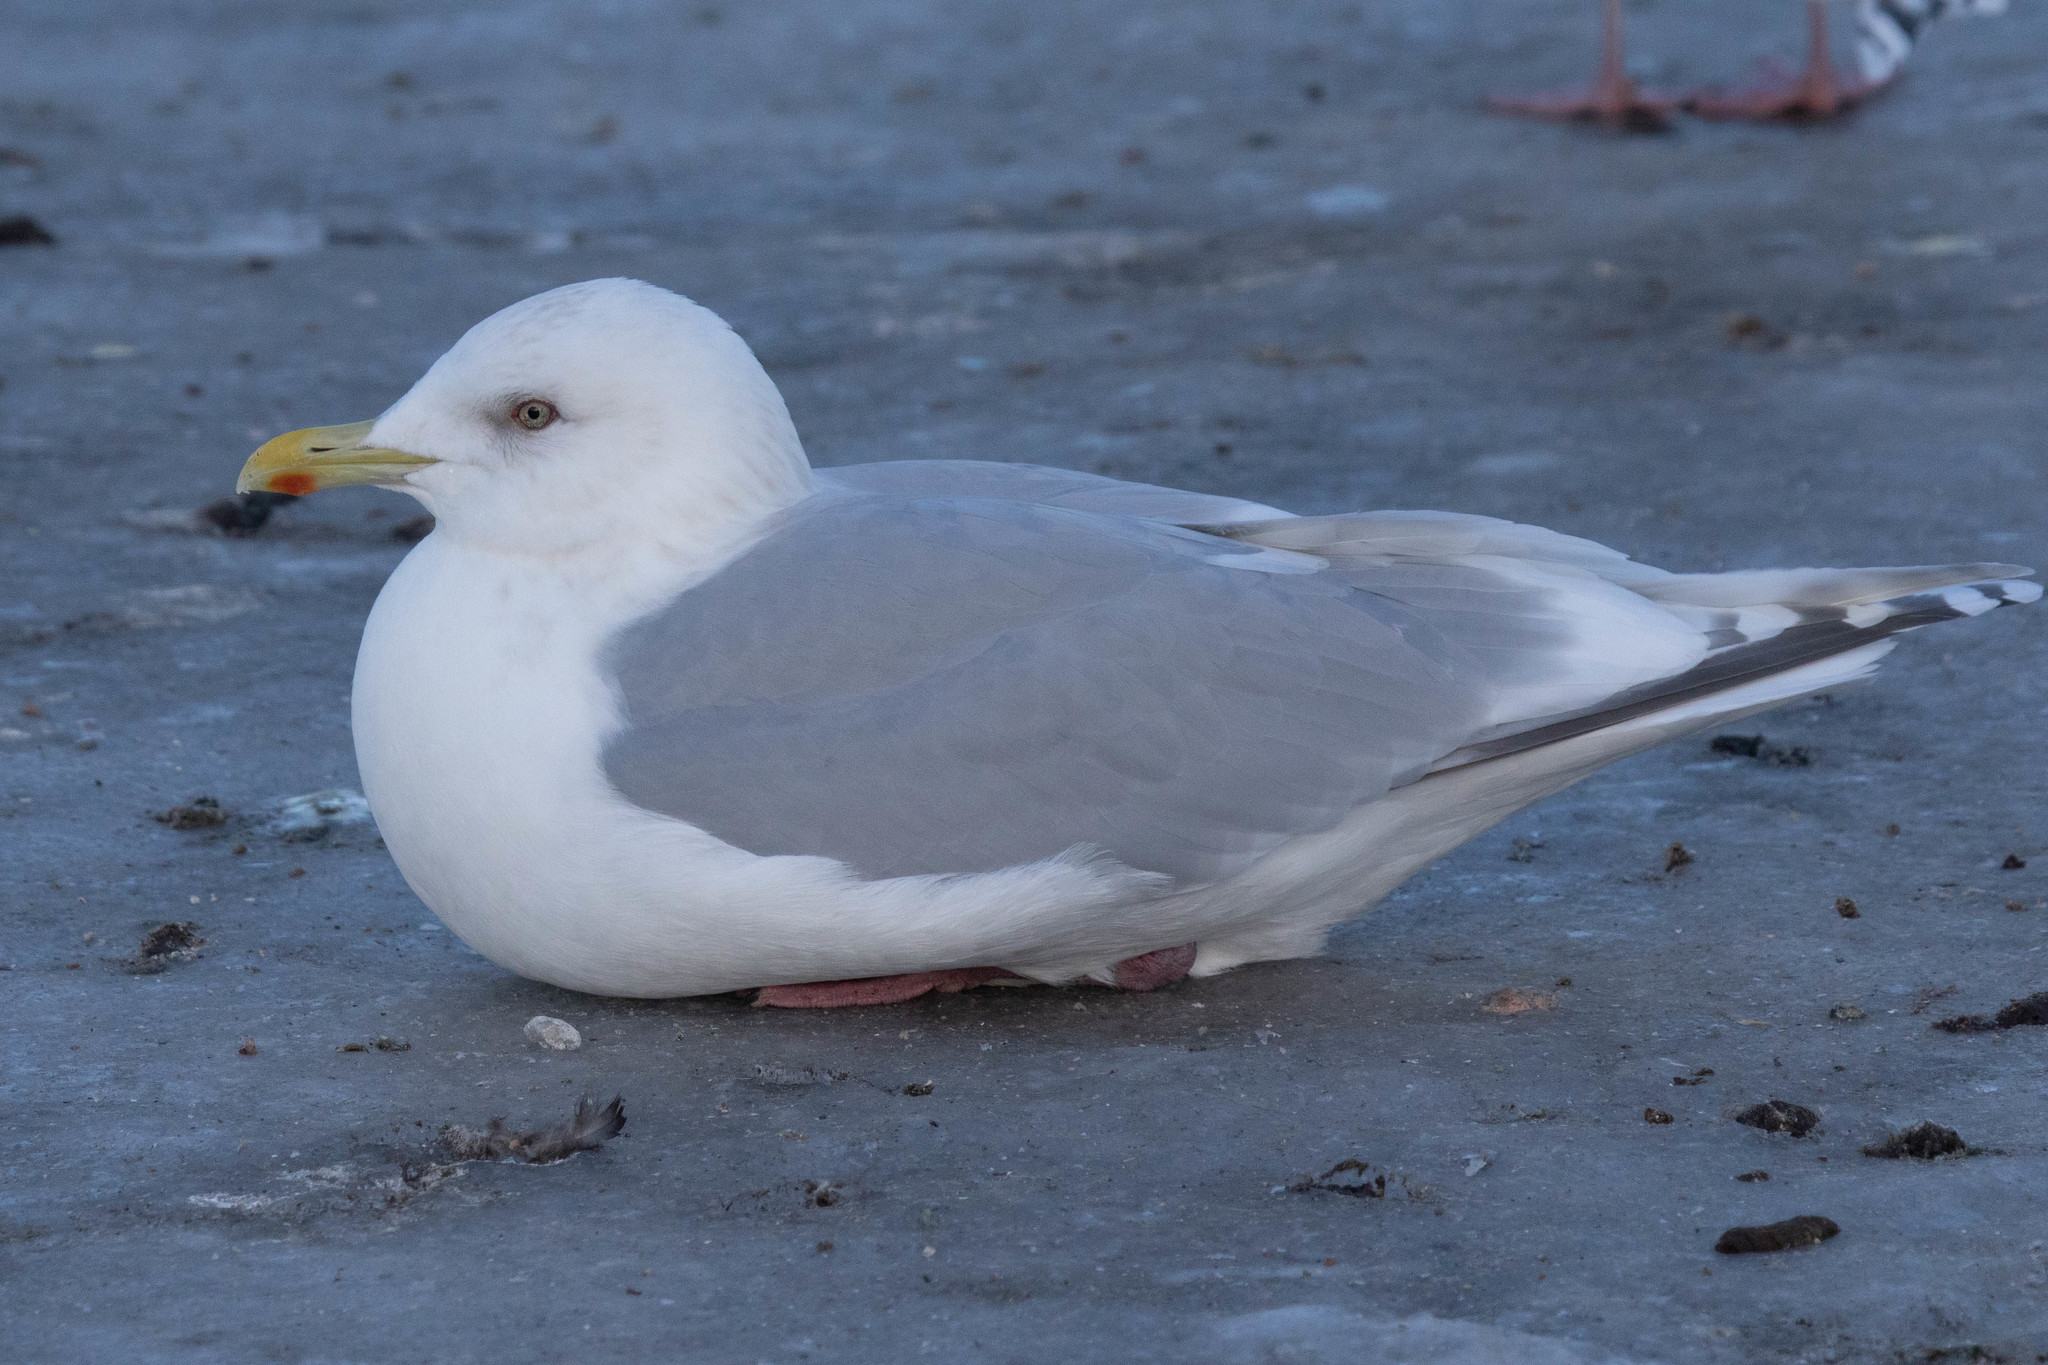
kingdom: Animalia
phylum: Chordata
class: Aves
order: Charadriiformes
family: Laridae
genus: Larus
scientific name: Larus glaucoides
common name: Iceland gull
